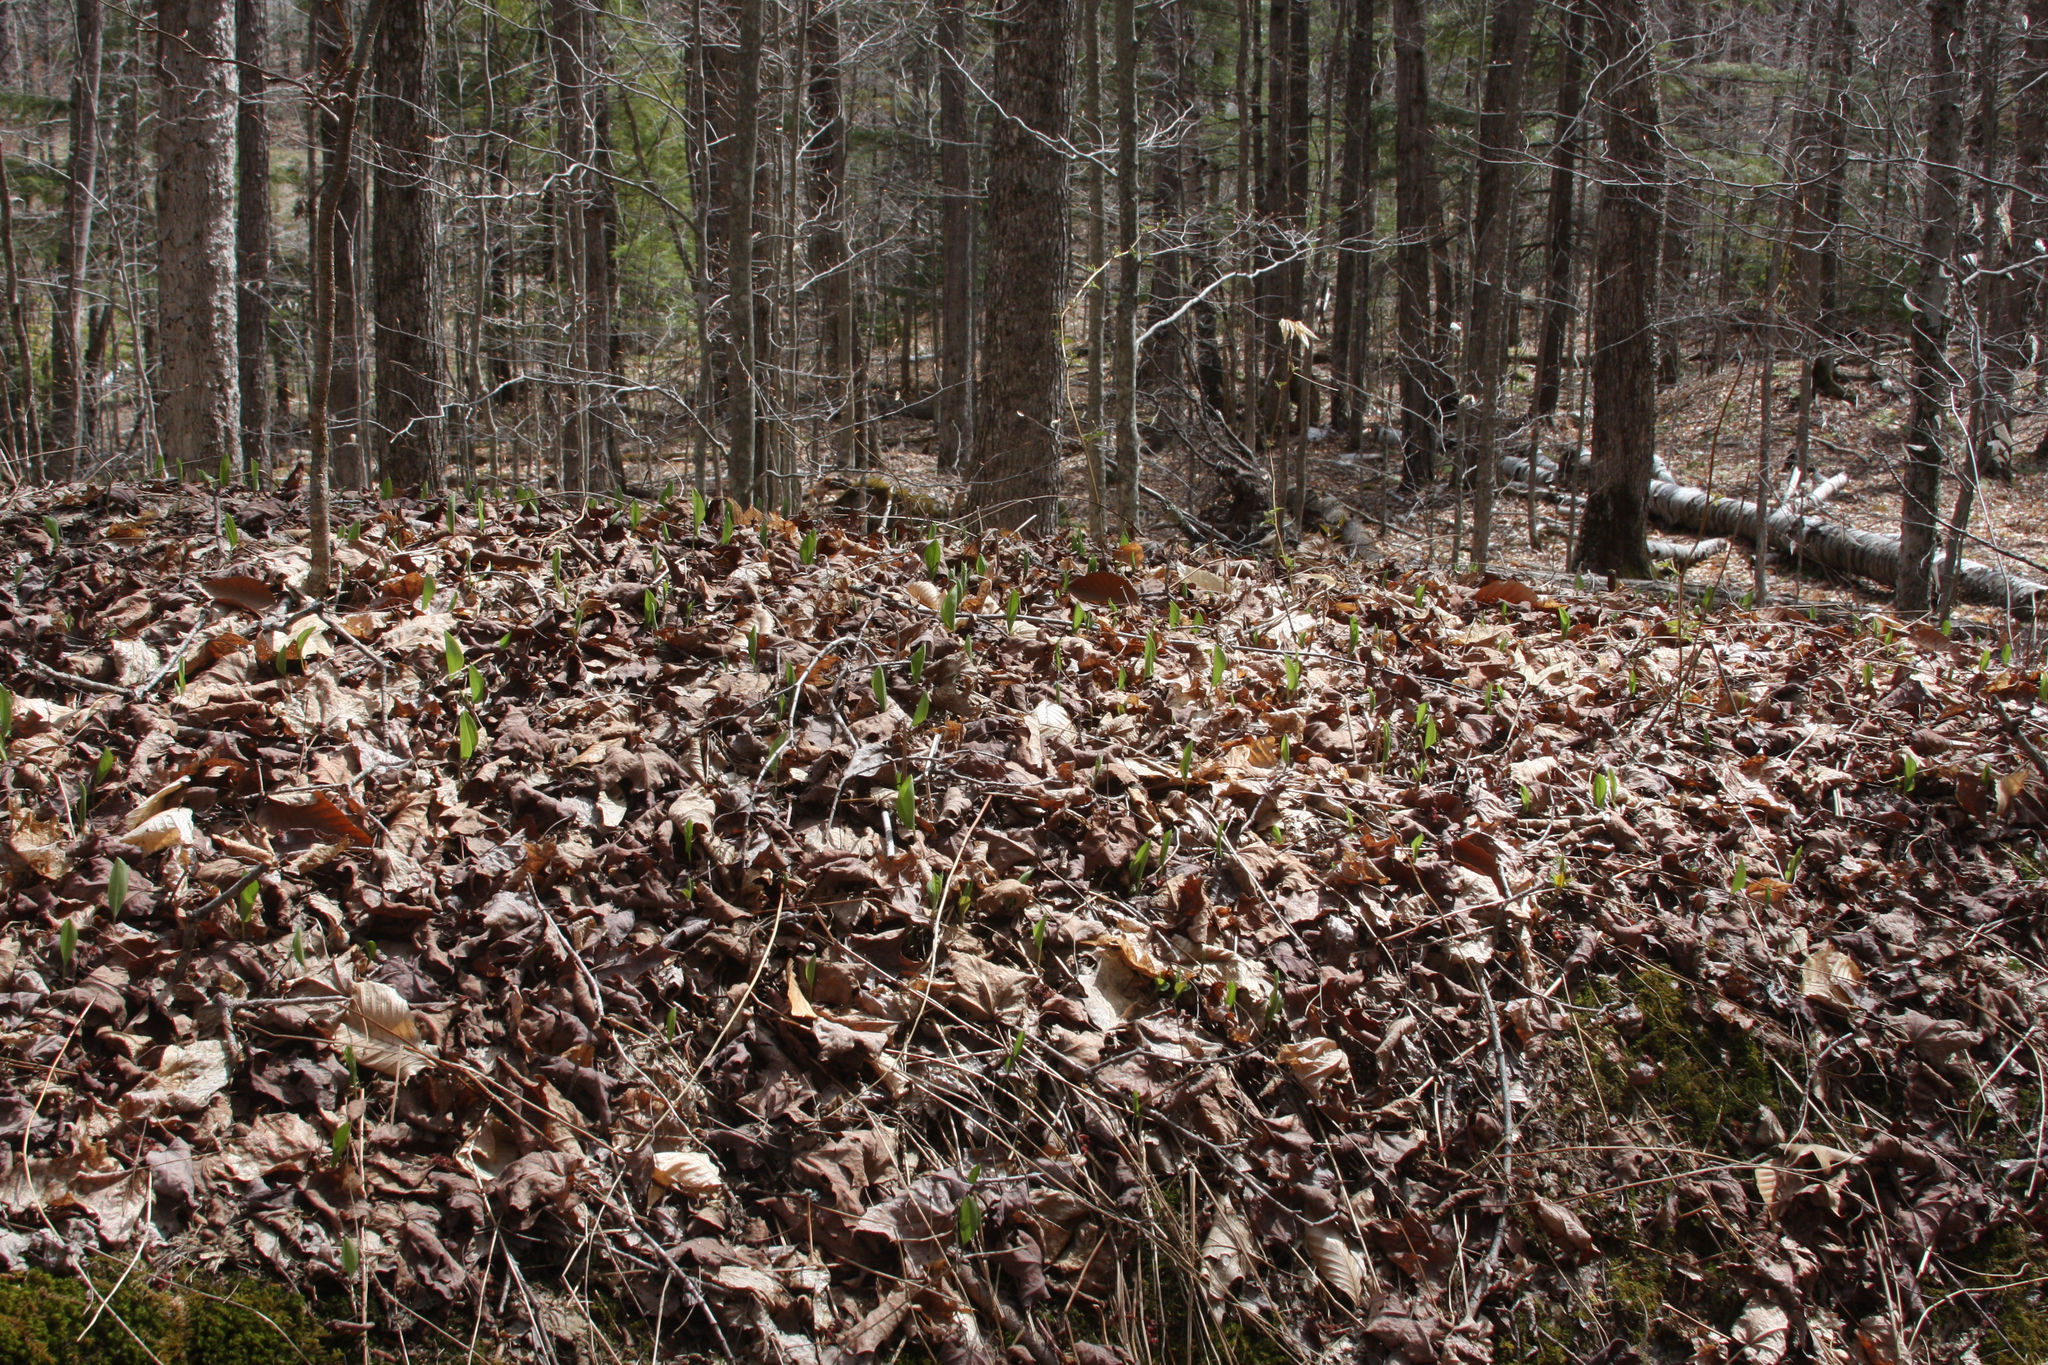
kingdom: Plantae
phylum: Tracheophyta
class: Liliopsida
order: Asparagales
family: Asparagaceae
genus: Maianthemum
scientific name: Maianthemum canadense
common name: False lily-of-the-valley
